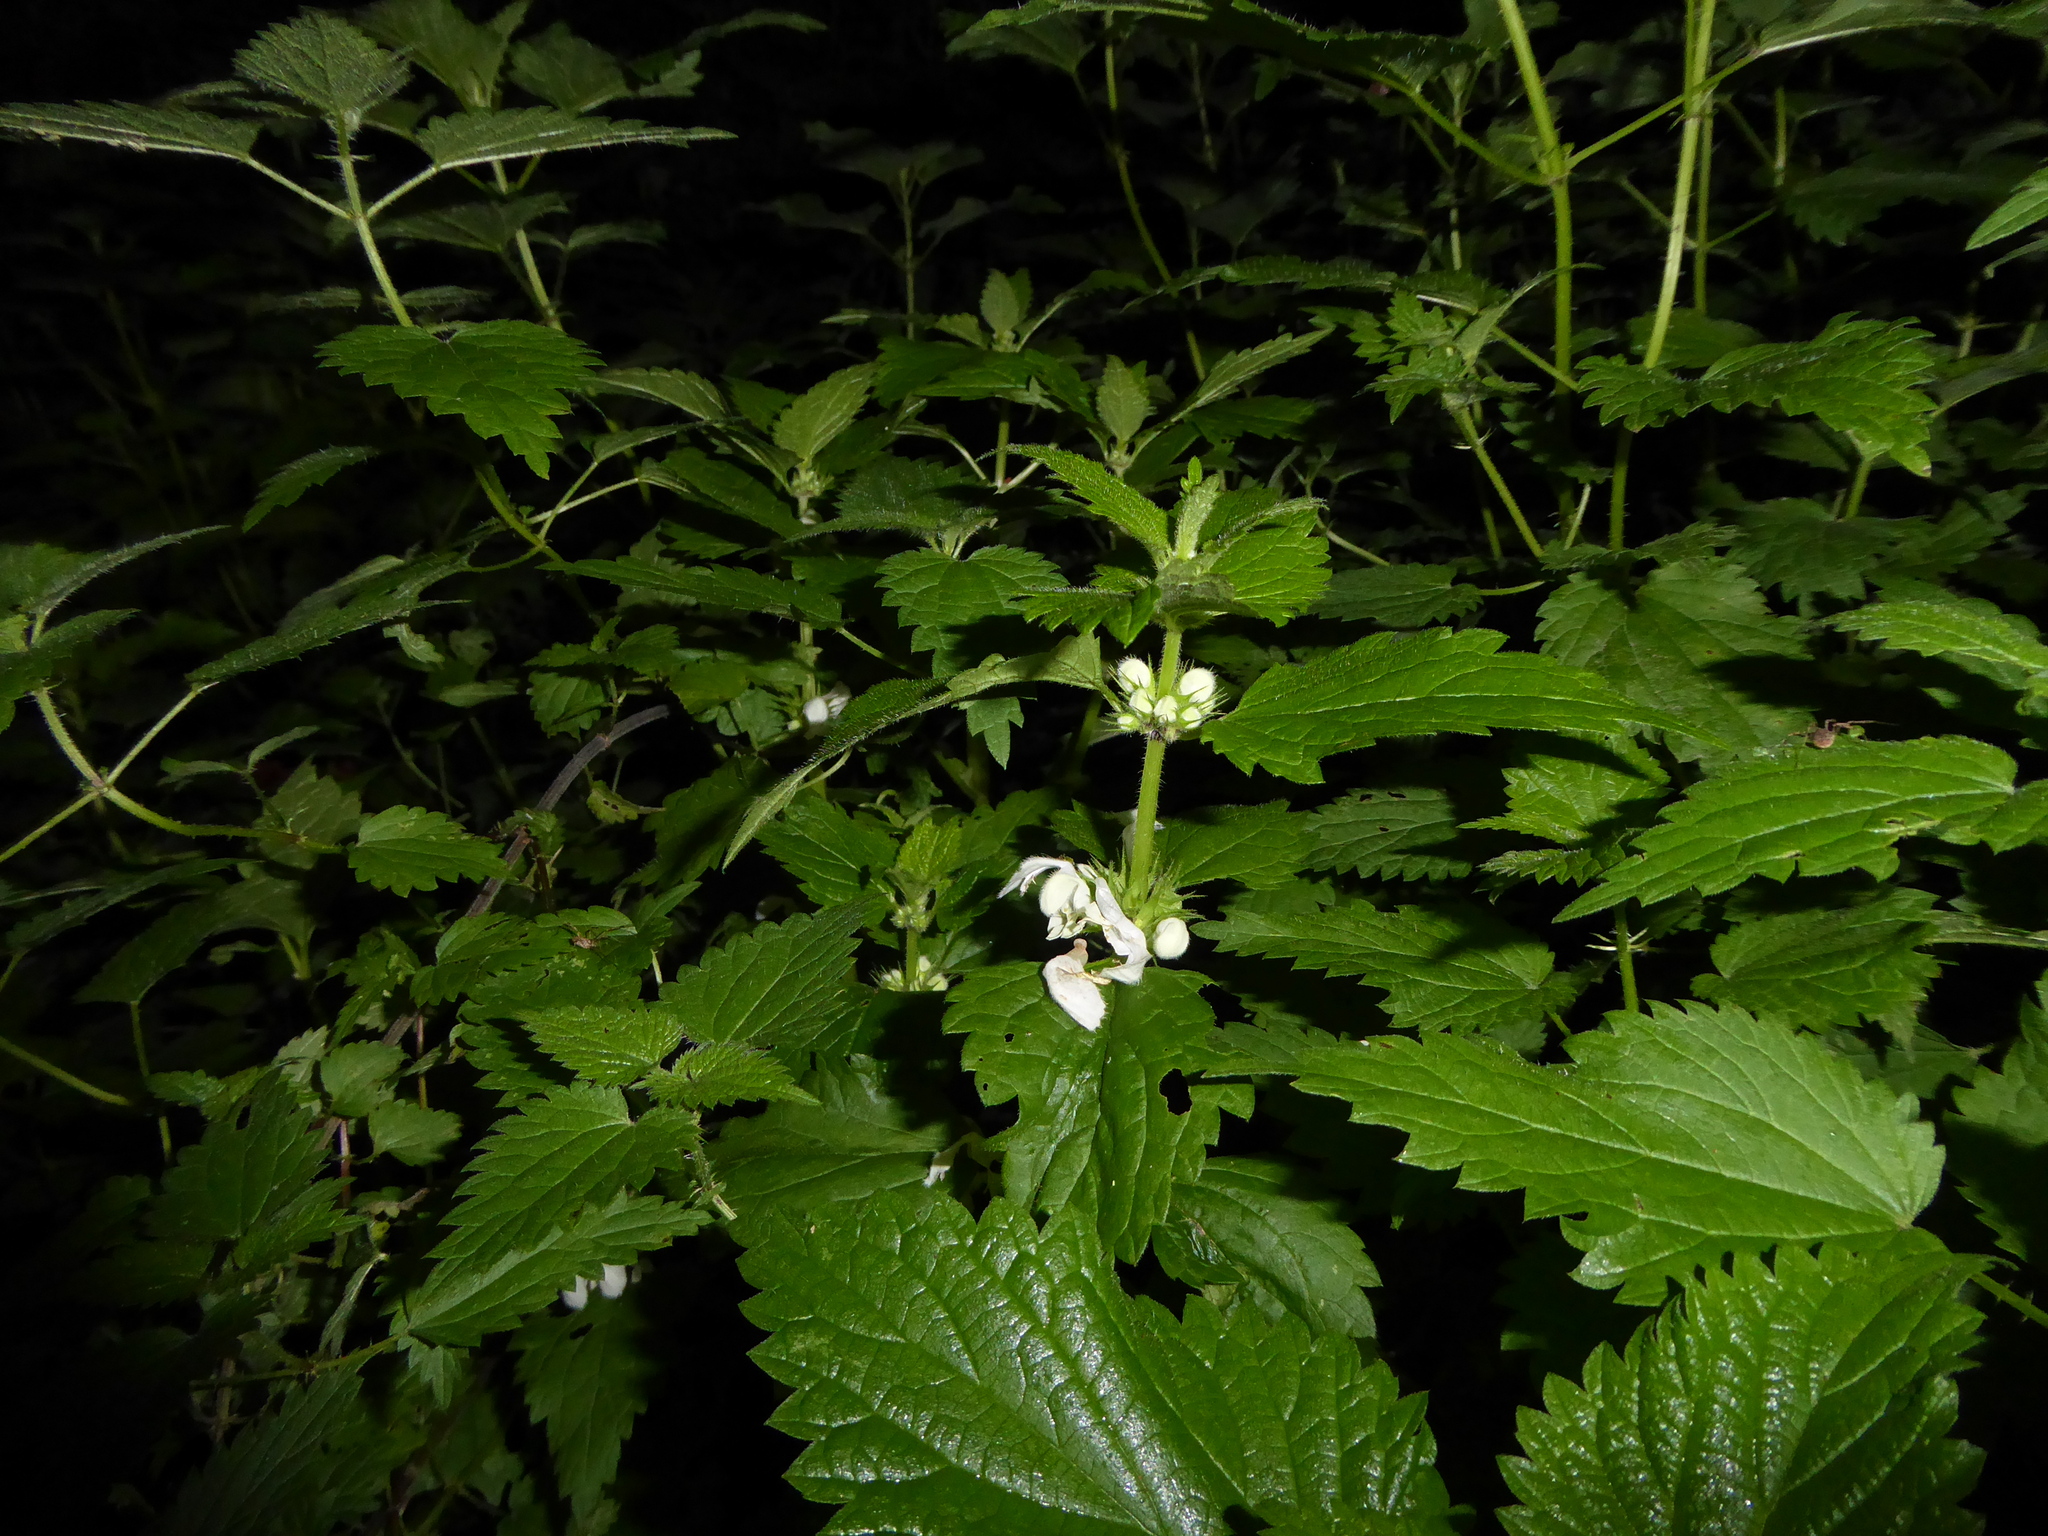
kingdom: Plantae
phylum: Tracheophyta
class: Magnoliopsida
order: Lamiales
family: Lamiaceae
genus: Lamium
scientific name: Lamium album
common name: White dead-nettle
